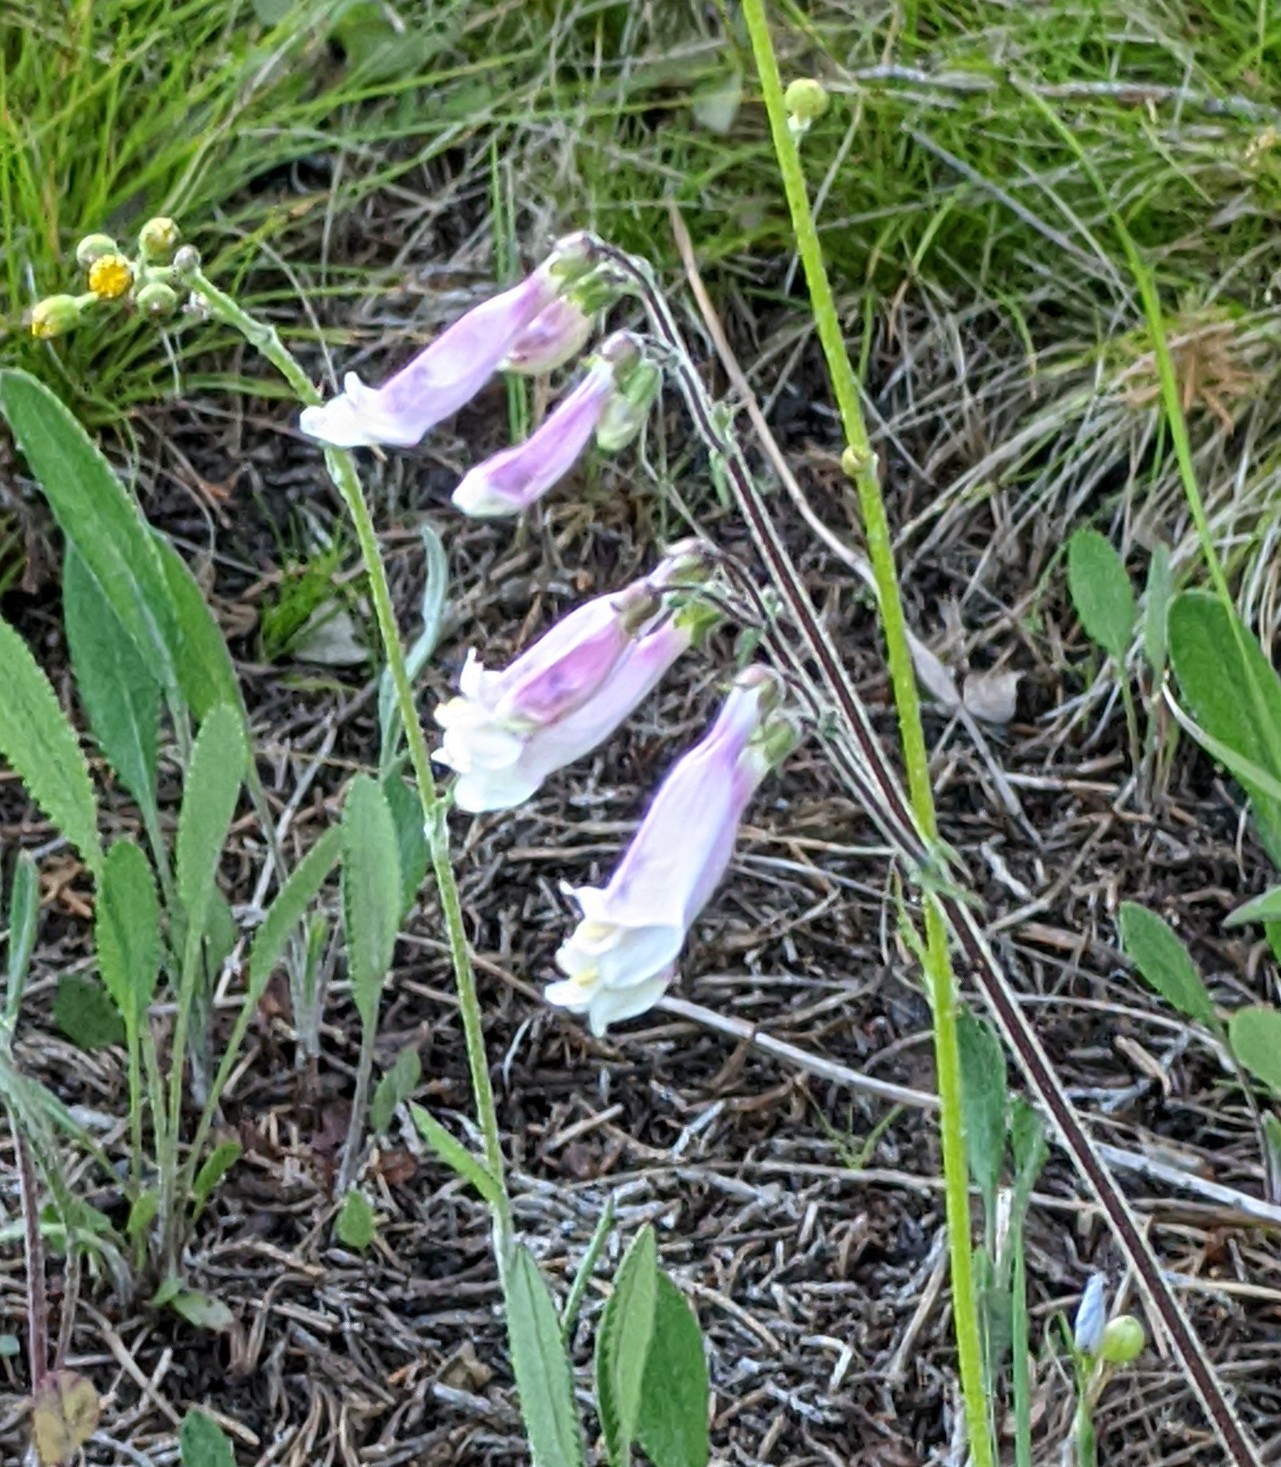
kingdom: Plantae
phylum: Tracheophyta
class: Magnoliopsida
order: Lamiales
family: Plantaginaceae
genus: Penstemon
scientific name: Penstemon hirsutus
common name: Hairy beardtongue
